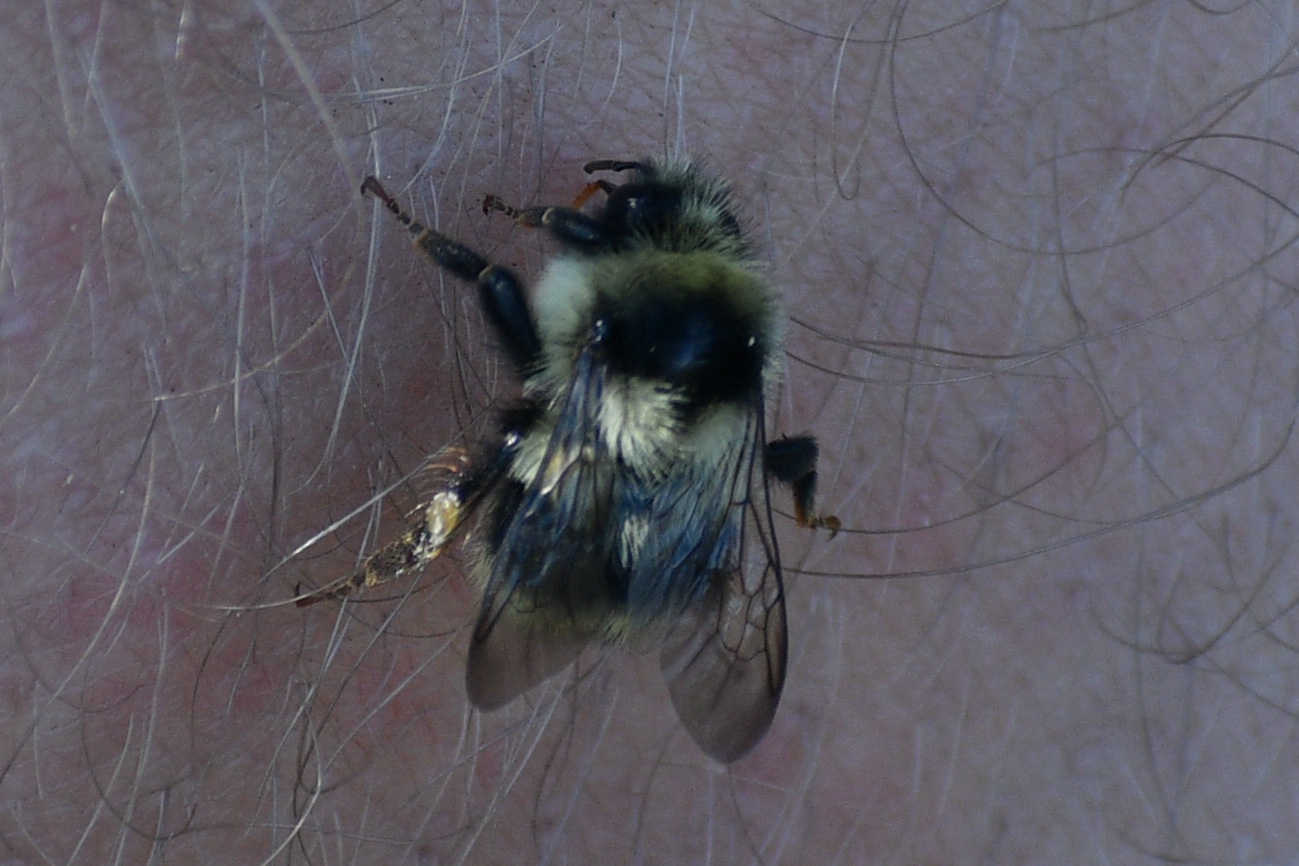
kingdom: Animalia
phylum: Arthropoda
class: Insecta
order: Hymenoptera
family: Apidae
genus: Bombus
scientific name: Bombus vancouverensis
